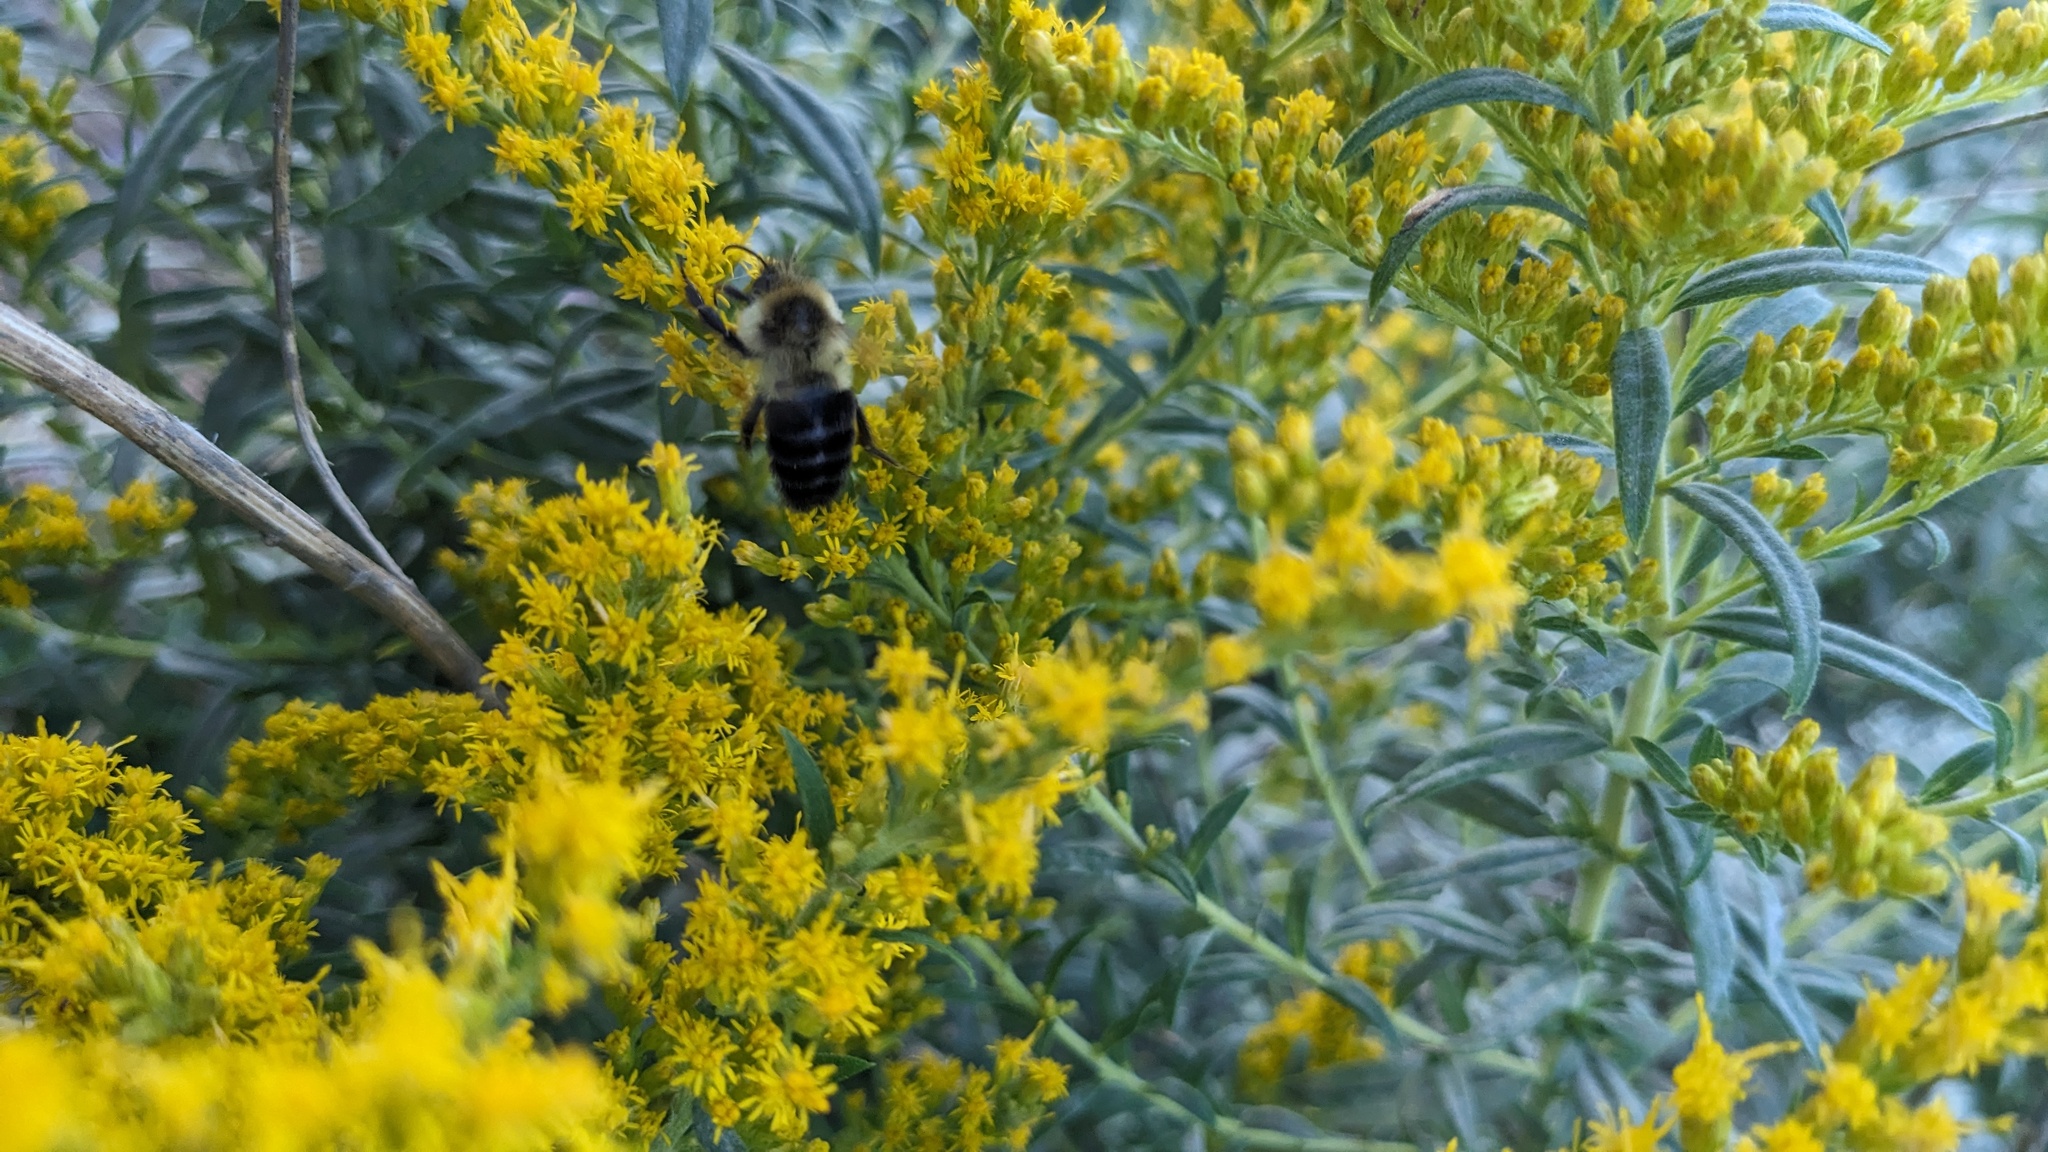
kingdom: Animalia
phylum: Arthropoda
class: Insecta
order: Hymenoptera
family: Apidae
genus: Bombus
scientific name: Bombus impatiens
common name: Common eastern bumble bee
